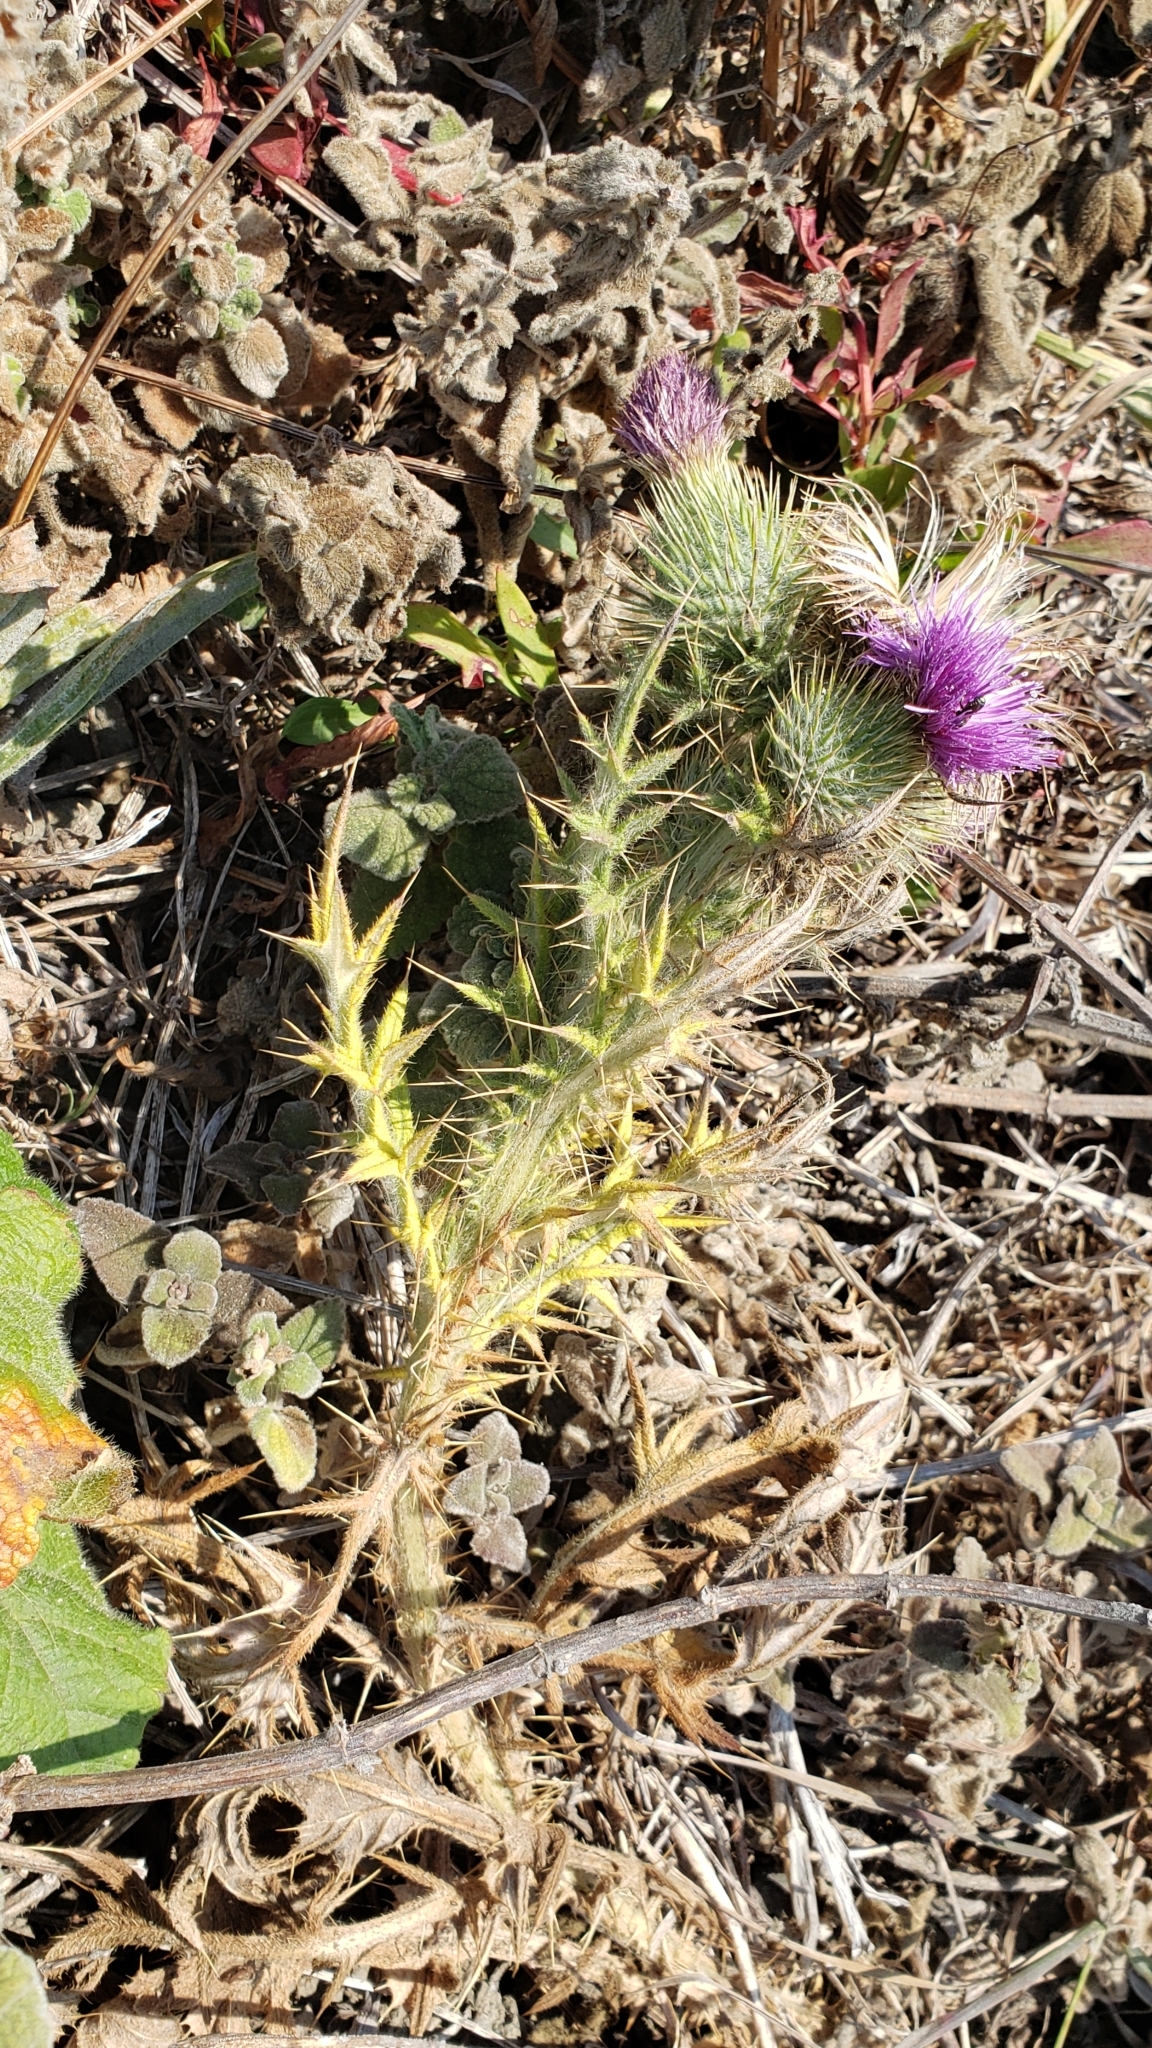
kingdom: Plantae
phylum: Tracheophyta
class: Magnoliopsida
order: Asterales
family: Asteraceae
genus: Cirsium
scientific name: Cirsium vulgare
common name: Bull thistle
